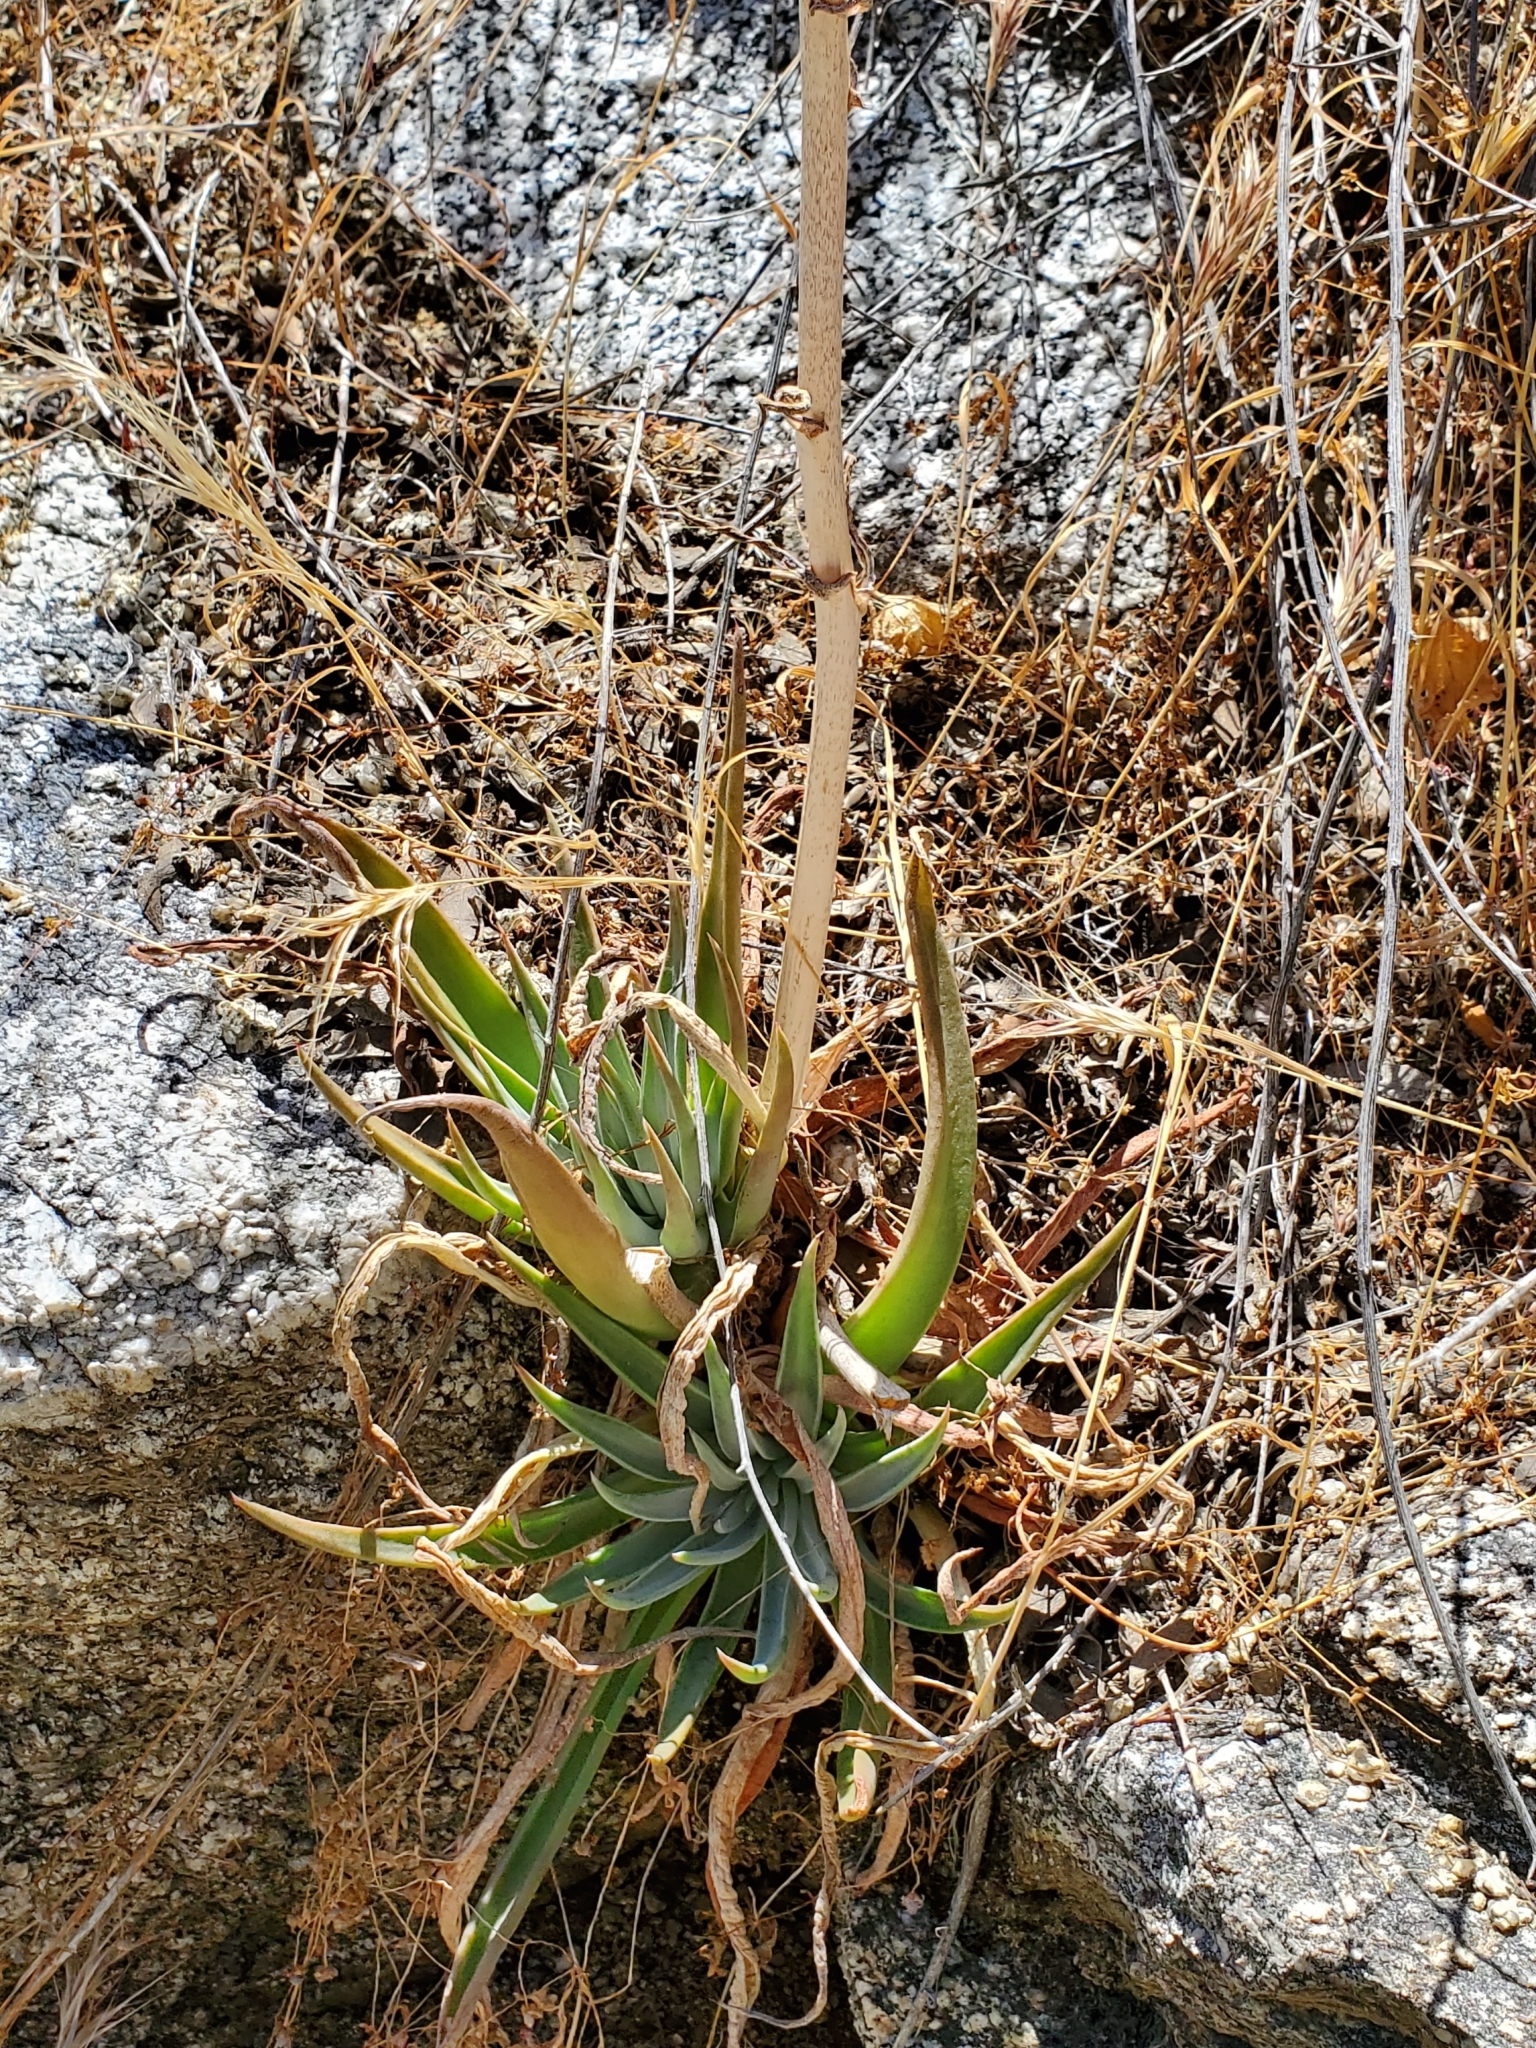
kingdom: Plantae
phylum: Tracheophyta
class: Magnoliopsida
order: Saxifragales
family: Crassulaceae
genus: Dudleya
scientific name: Dudleya saxosa
